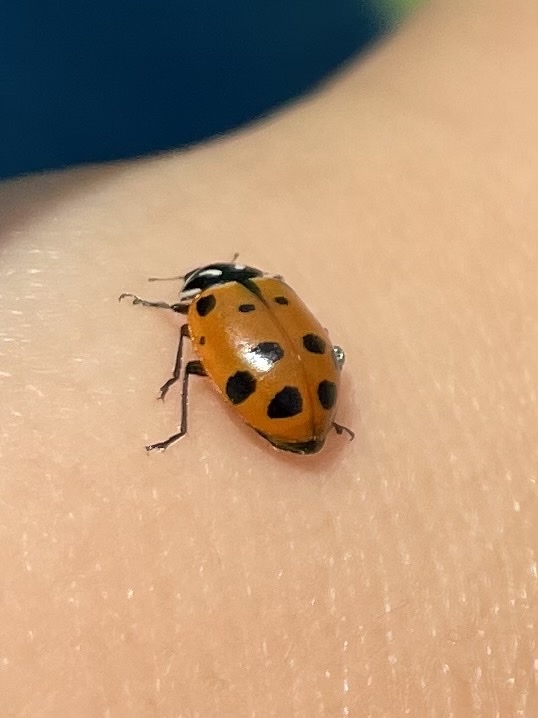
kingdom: Animalia
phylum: Arthropoda
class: Insecta
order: Coleoptera
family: Coccinellidae
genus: Hippodamia
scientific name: Hippodamia convergens
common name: Convergent lady beetle
